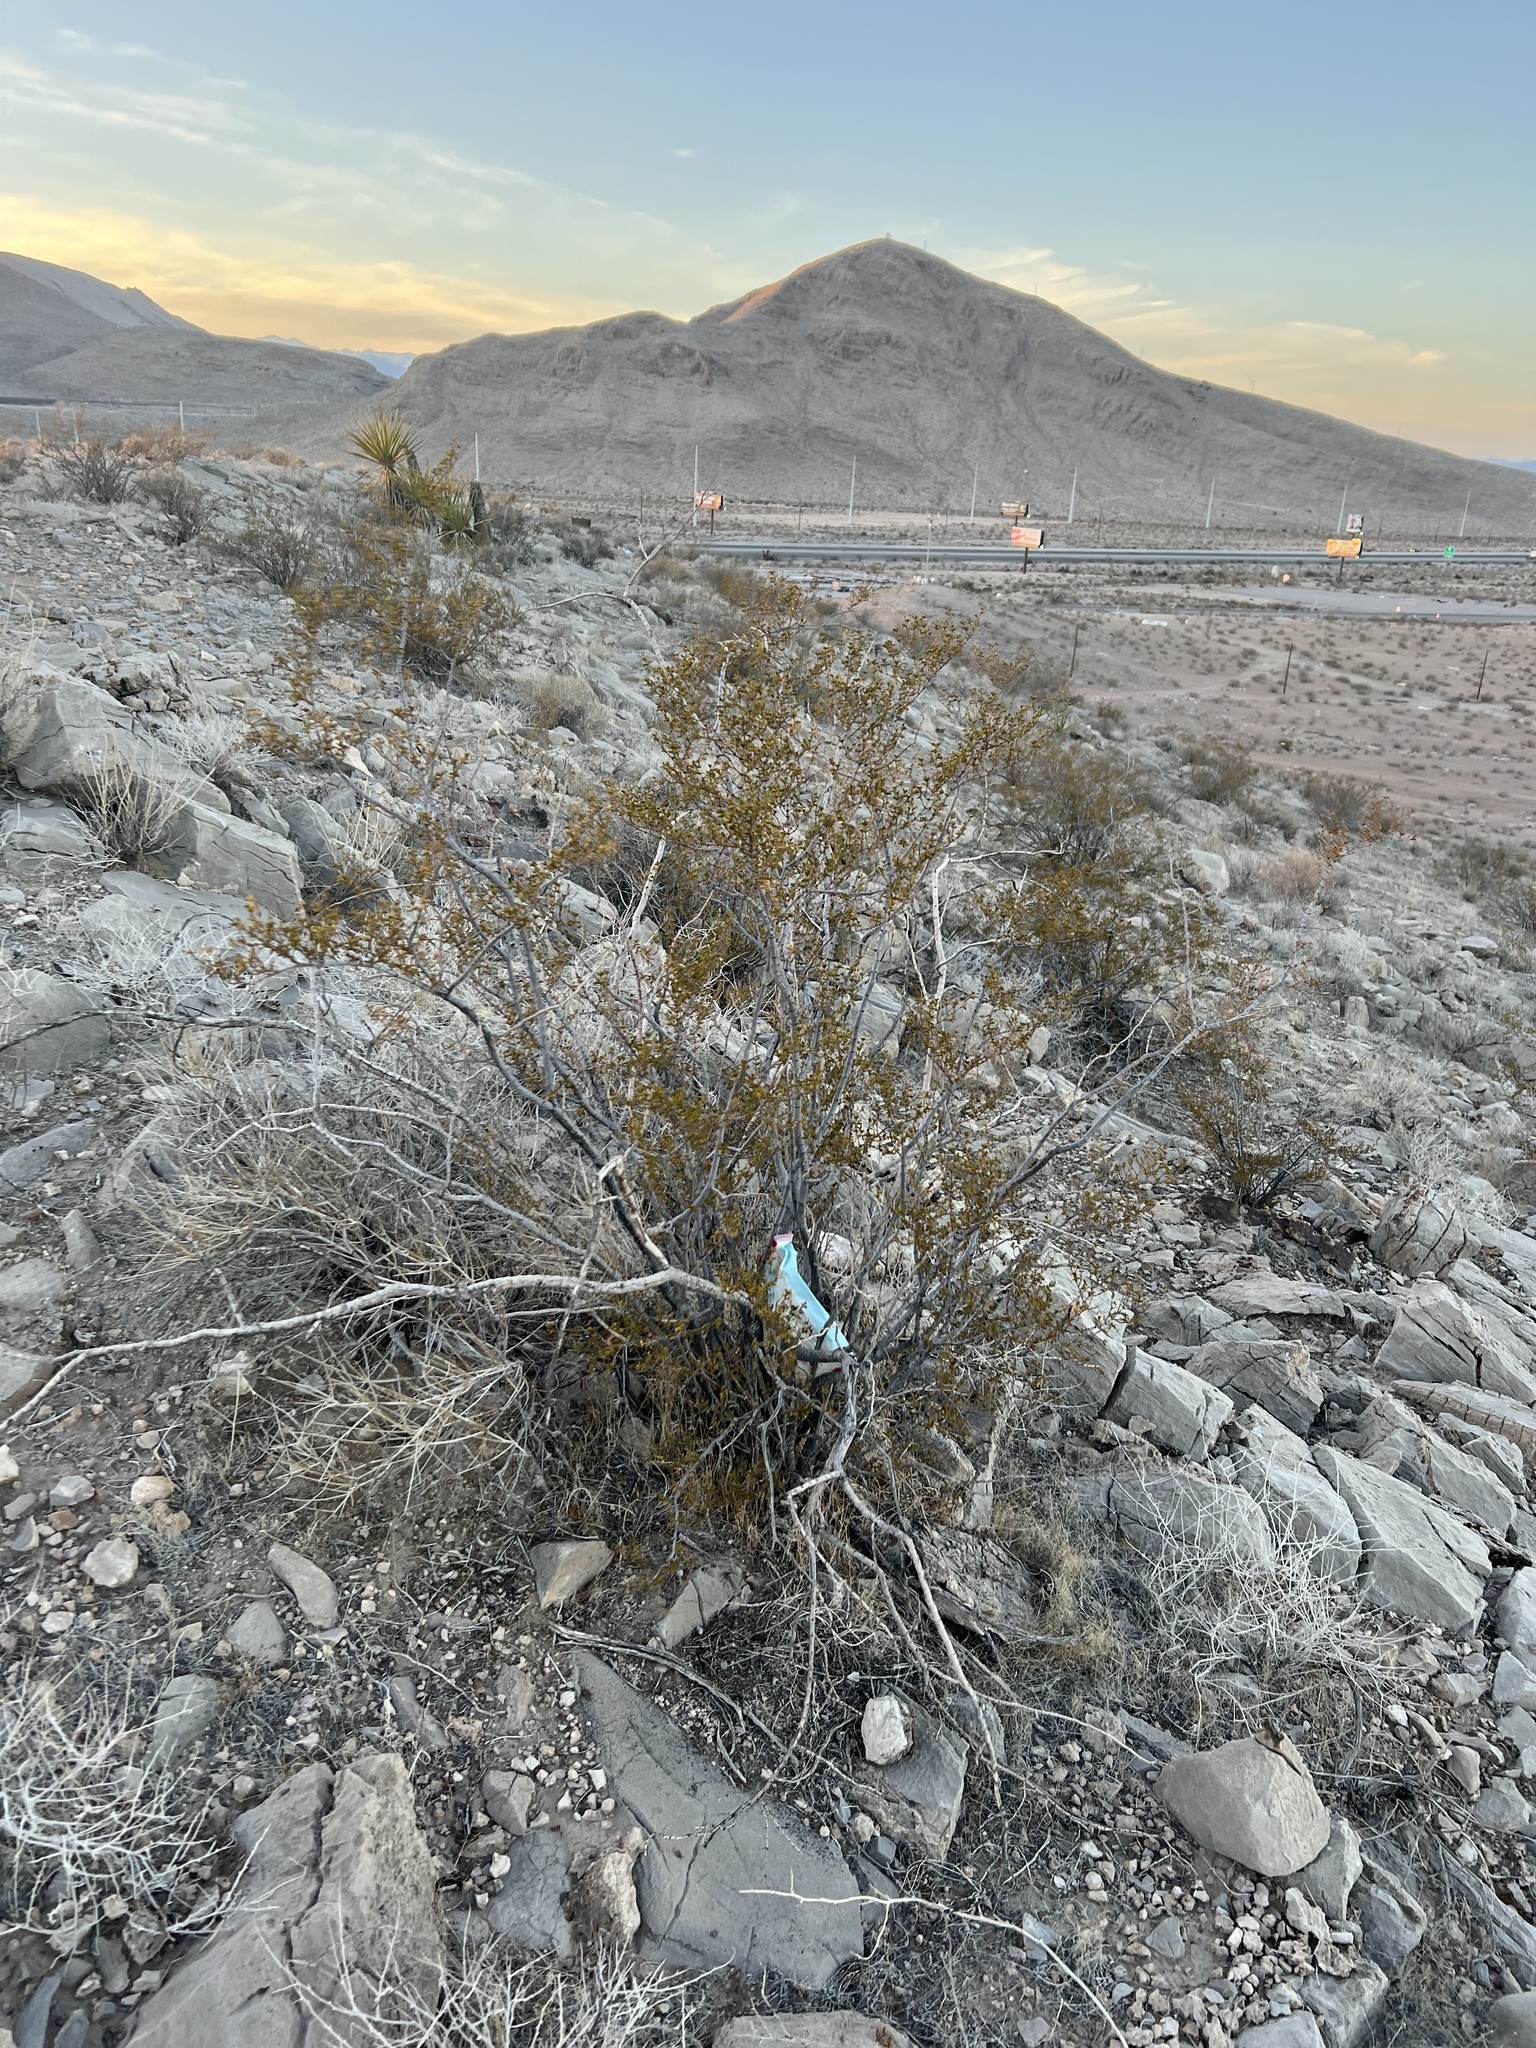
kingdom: Plantae
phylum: Tracheophyta
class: Magnoliopsida
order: Zygophyllales
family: Zygophyllaceae
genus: Larrea
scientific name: Larrea tridentata
